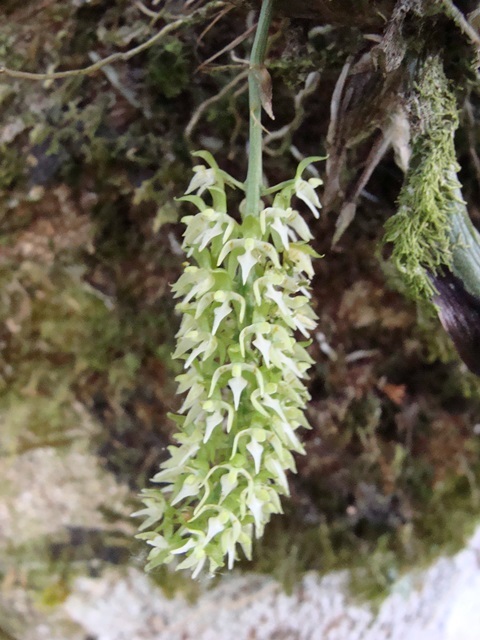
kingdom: Plantae
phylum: Tracheophyta
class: Liliopsida
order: Asparagales
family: Orchidaceae
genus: Notylia
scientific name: Notylia barkeri
